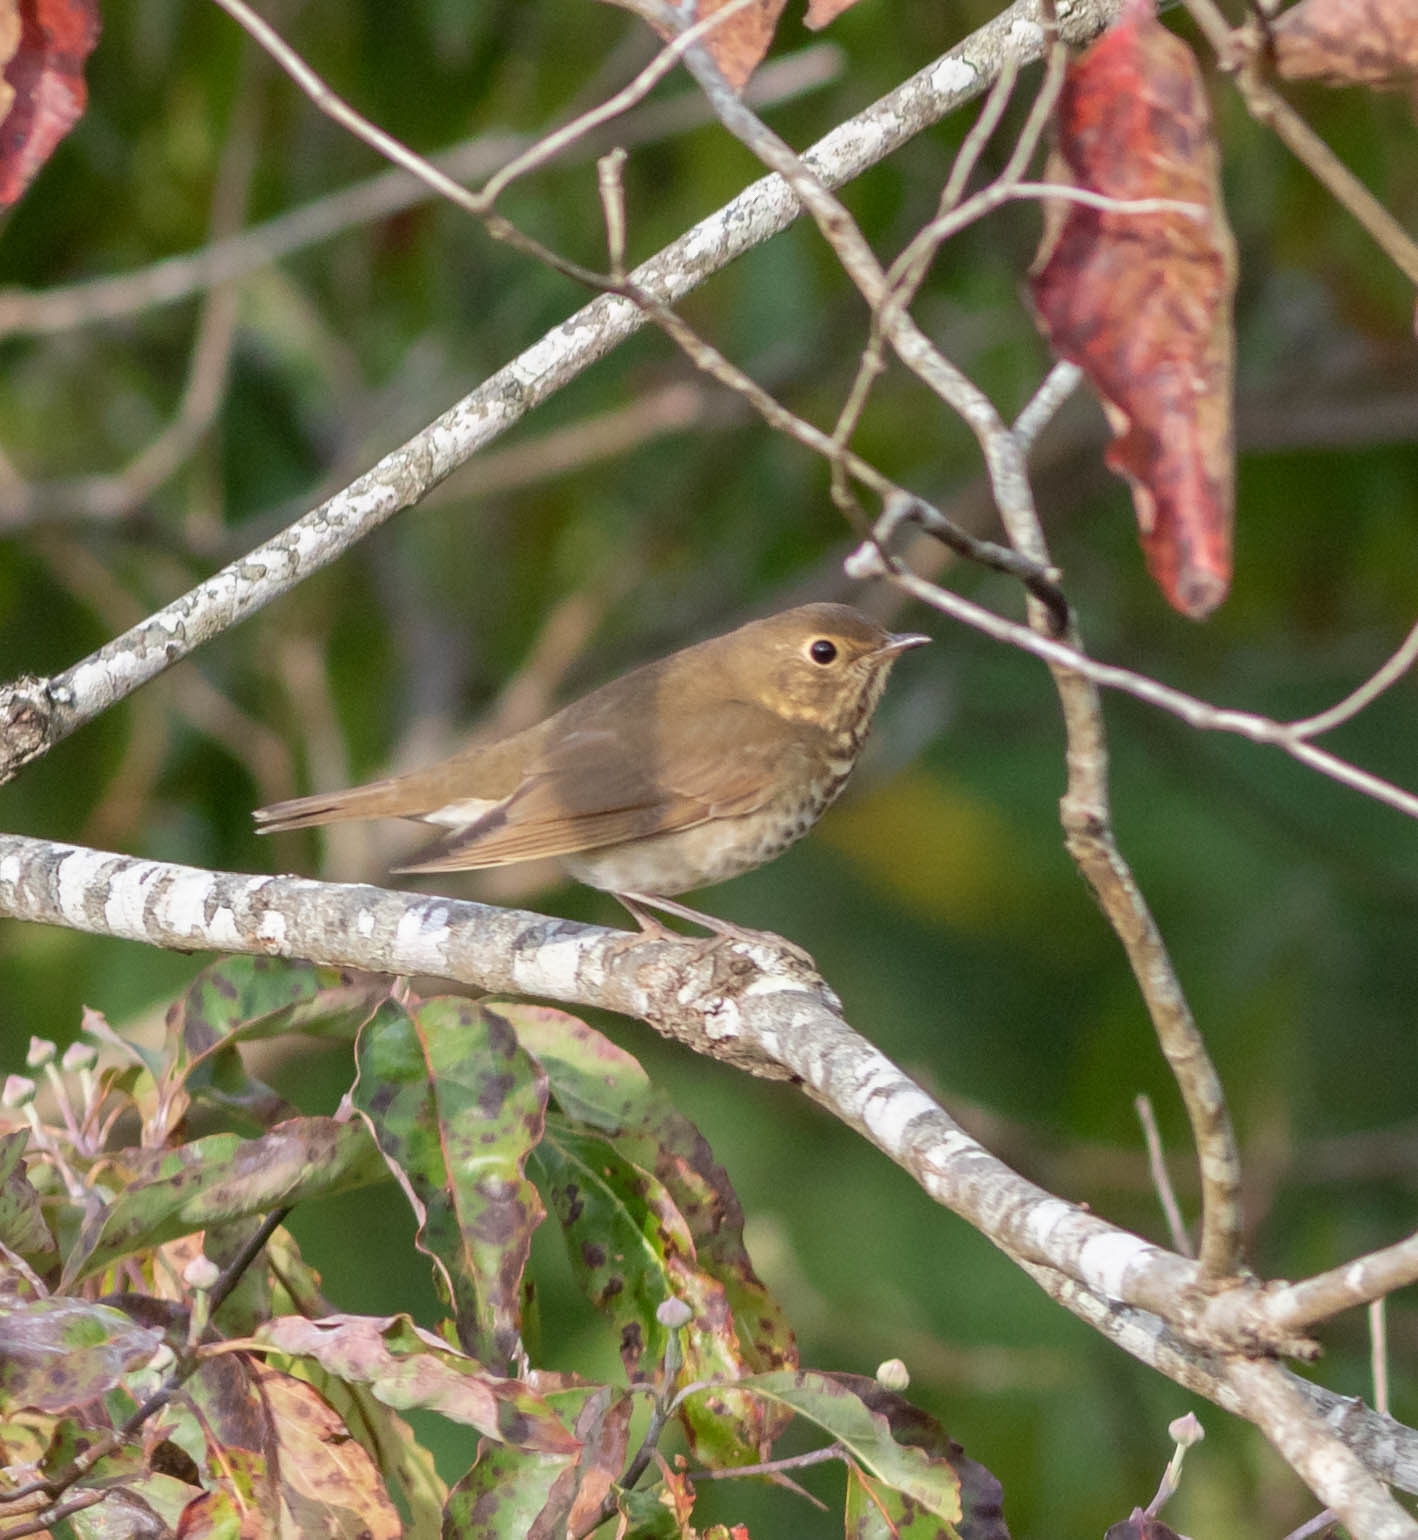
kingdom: Animalia
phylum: Chordata
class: Aves
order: Passeriformes
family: Turdidae
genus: Catharus
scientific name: Catharus ustulatus
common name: Swainson's thrush
